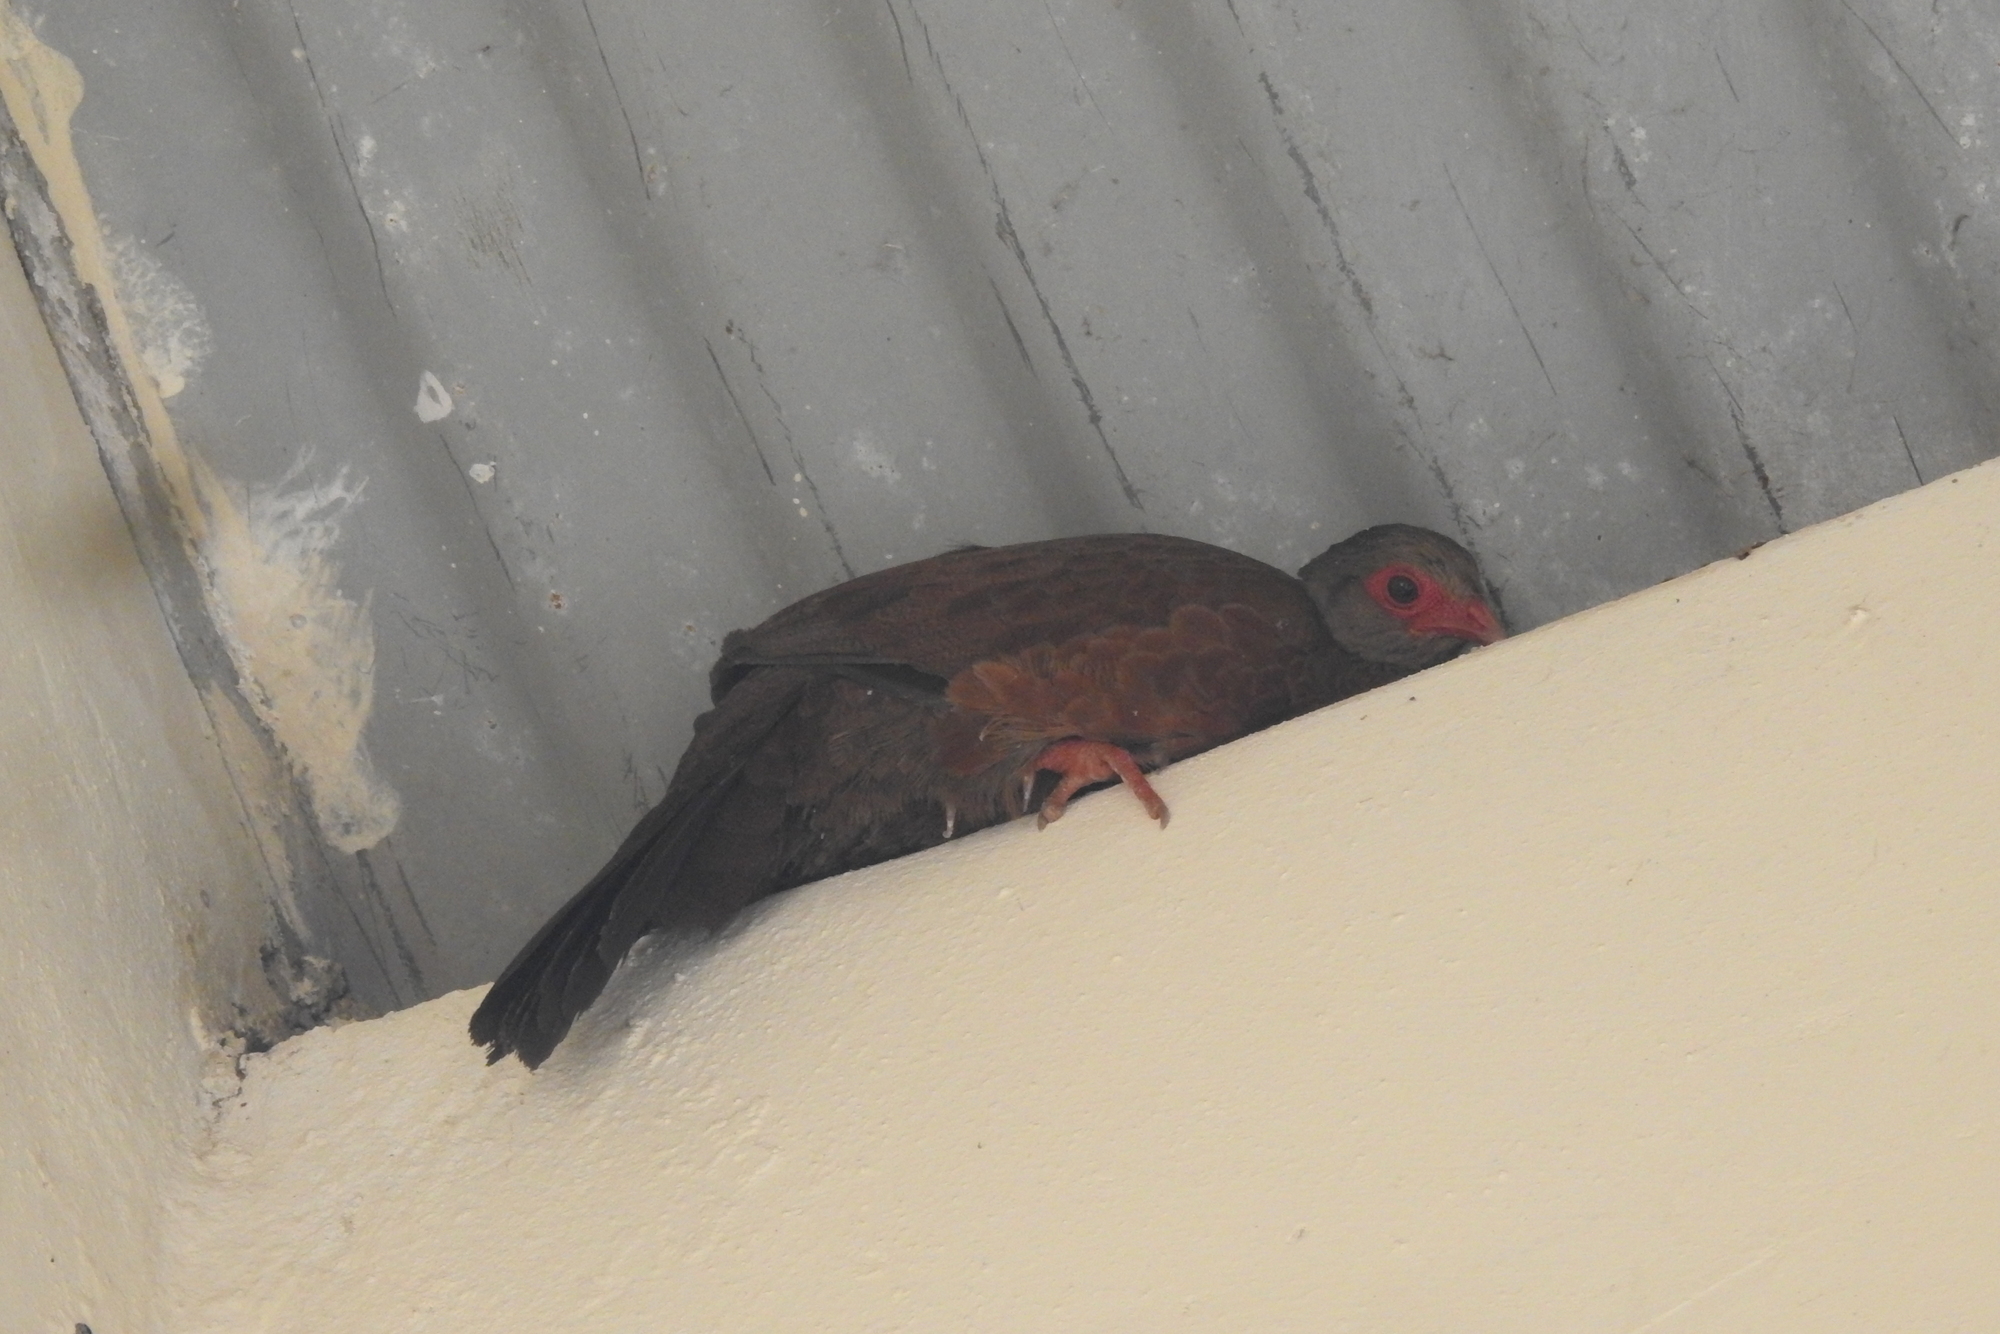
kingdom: Animalia
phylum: Chordata
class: Aves
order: Galliformes
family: Phasianidae
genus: Galloperdix
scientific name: Galloperdix spadicea
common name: Red spurfowl
